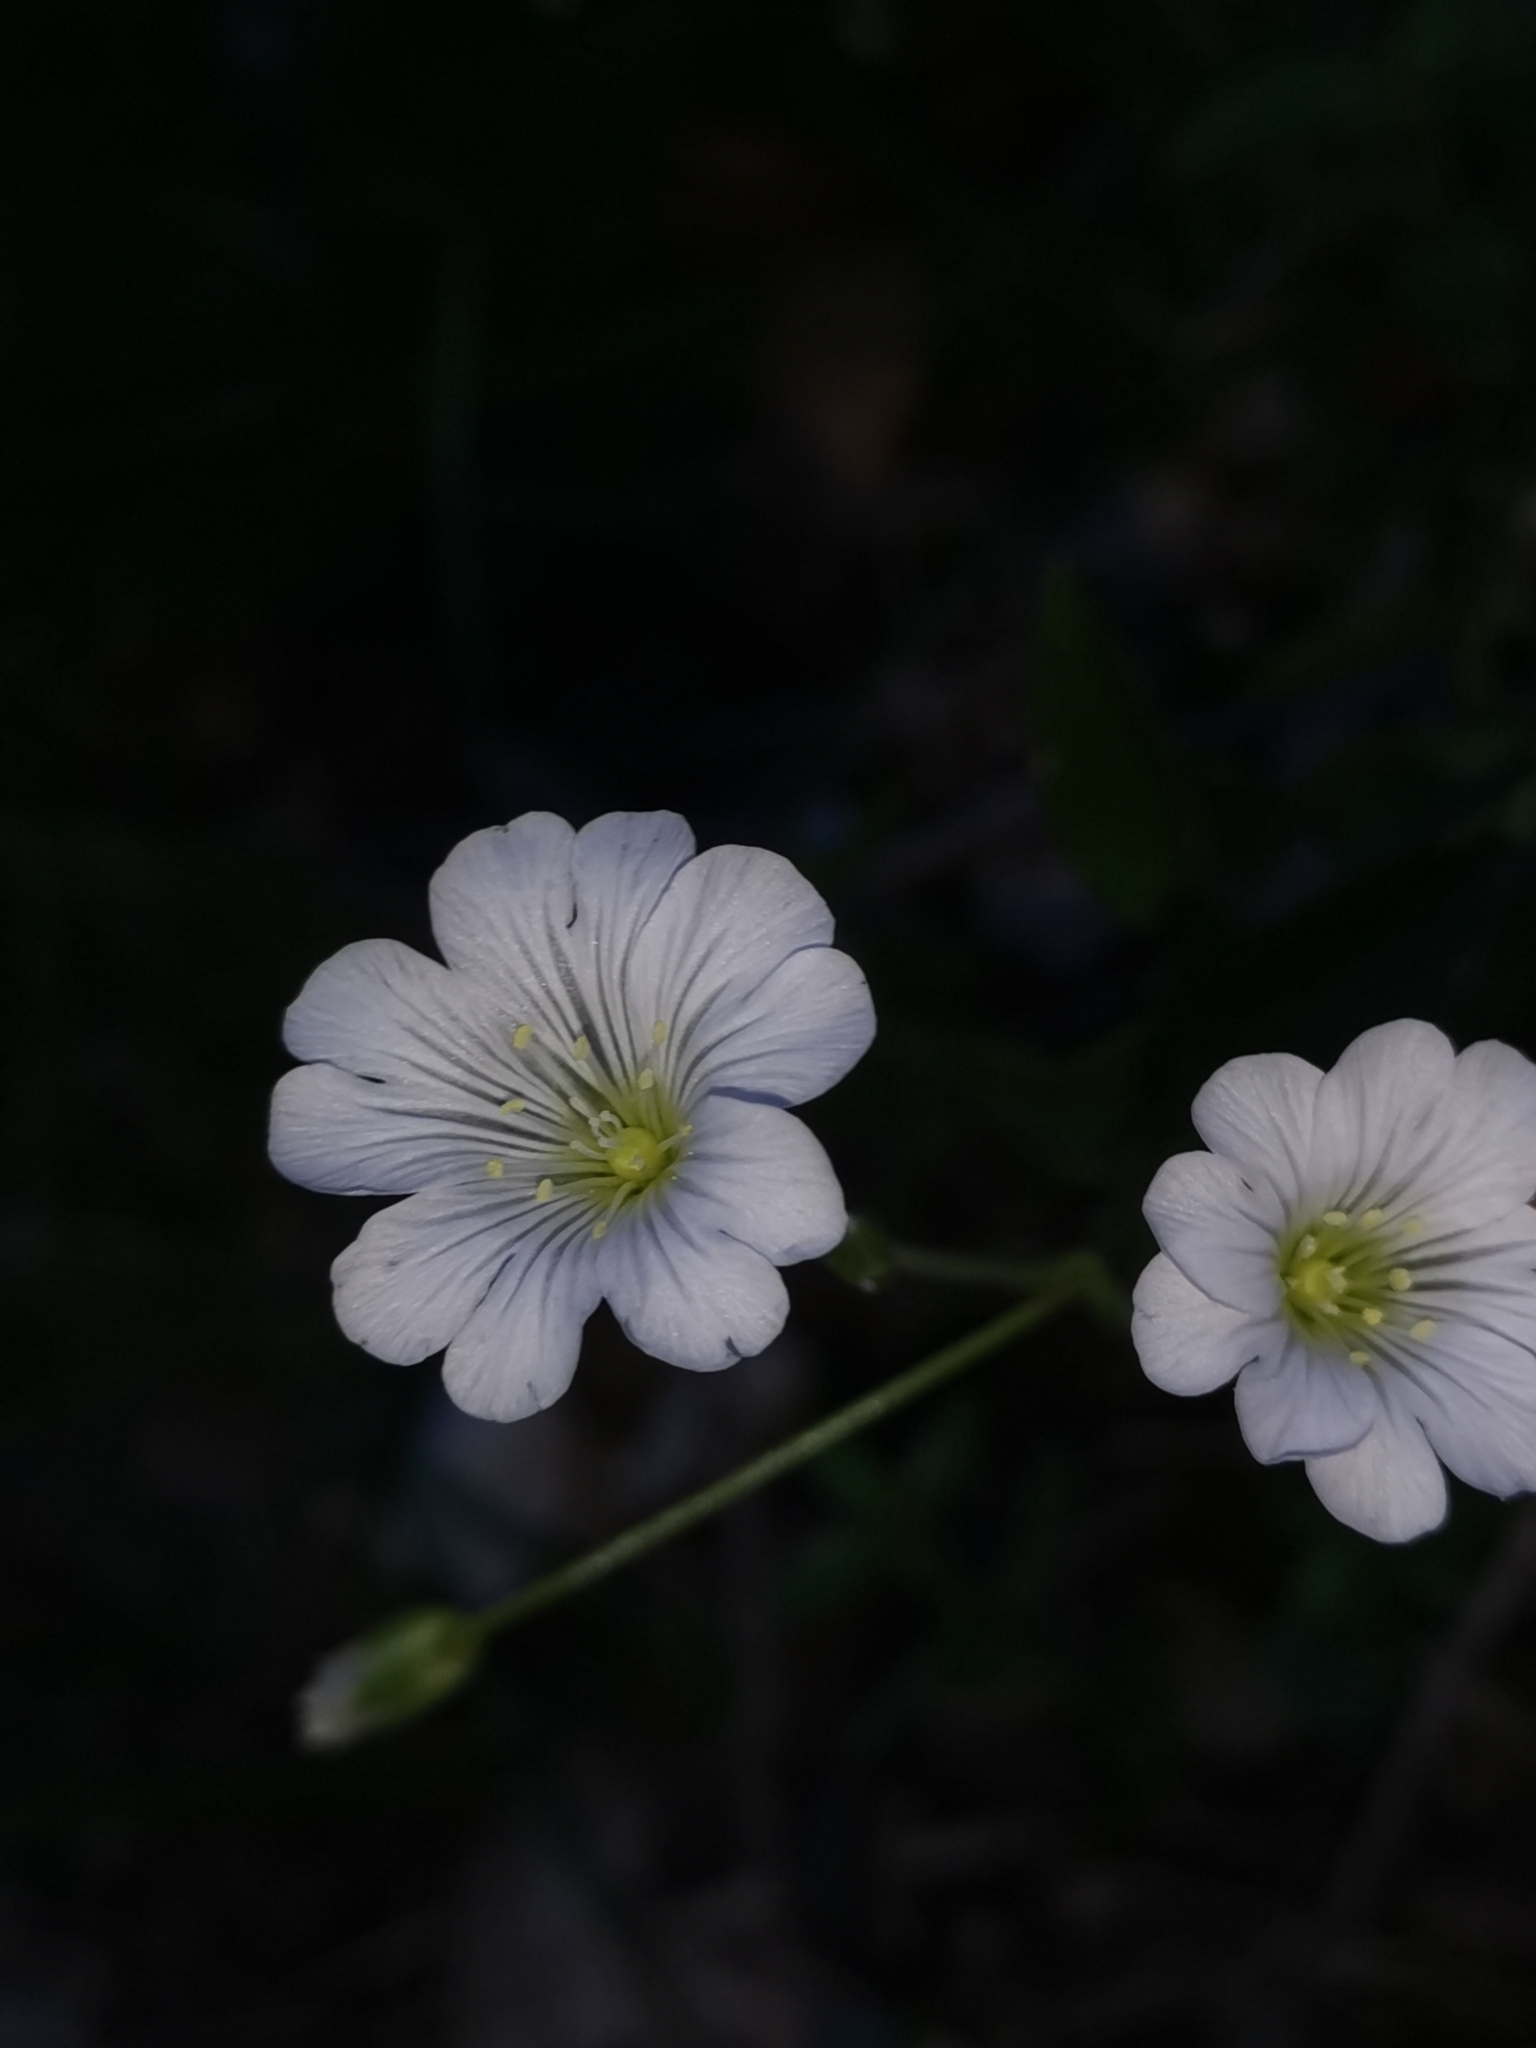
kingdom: Plantae
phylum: Tracheophyta
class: Magnoliopsida
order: Caryophyllales
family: Caryophyllaceae
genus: Cerastium
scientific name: Cerastium carinthiacum
